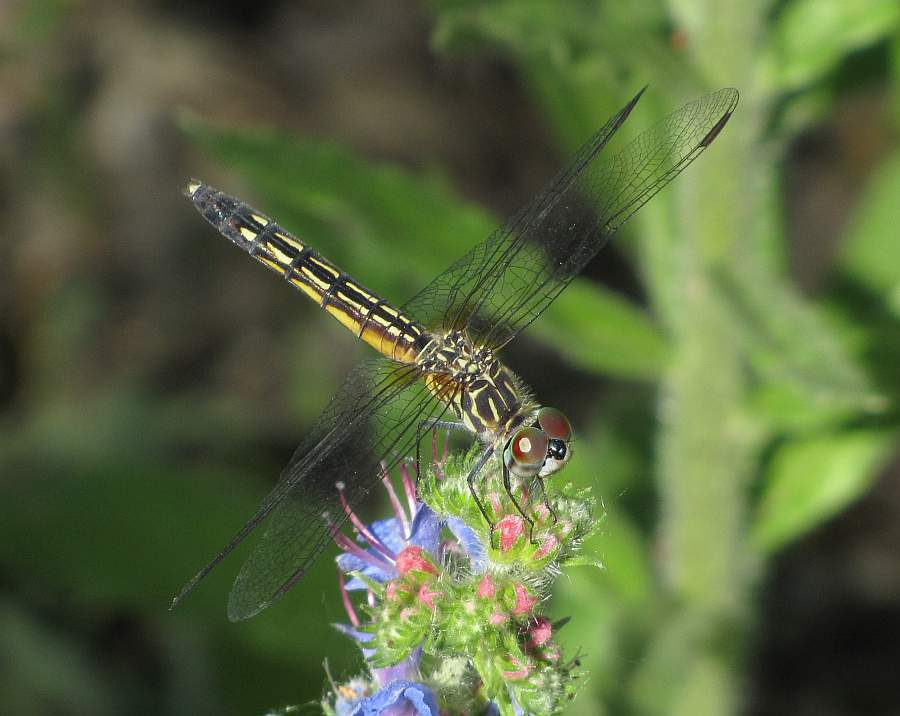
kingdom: Animalia
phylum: Arthropoda
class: Insecta
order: Odonata
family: Libellulidae
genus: Pachydiplax
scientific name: Pachydiplax longipennis
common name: Blue dasher
